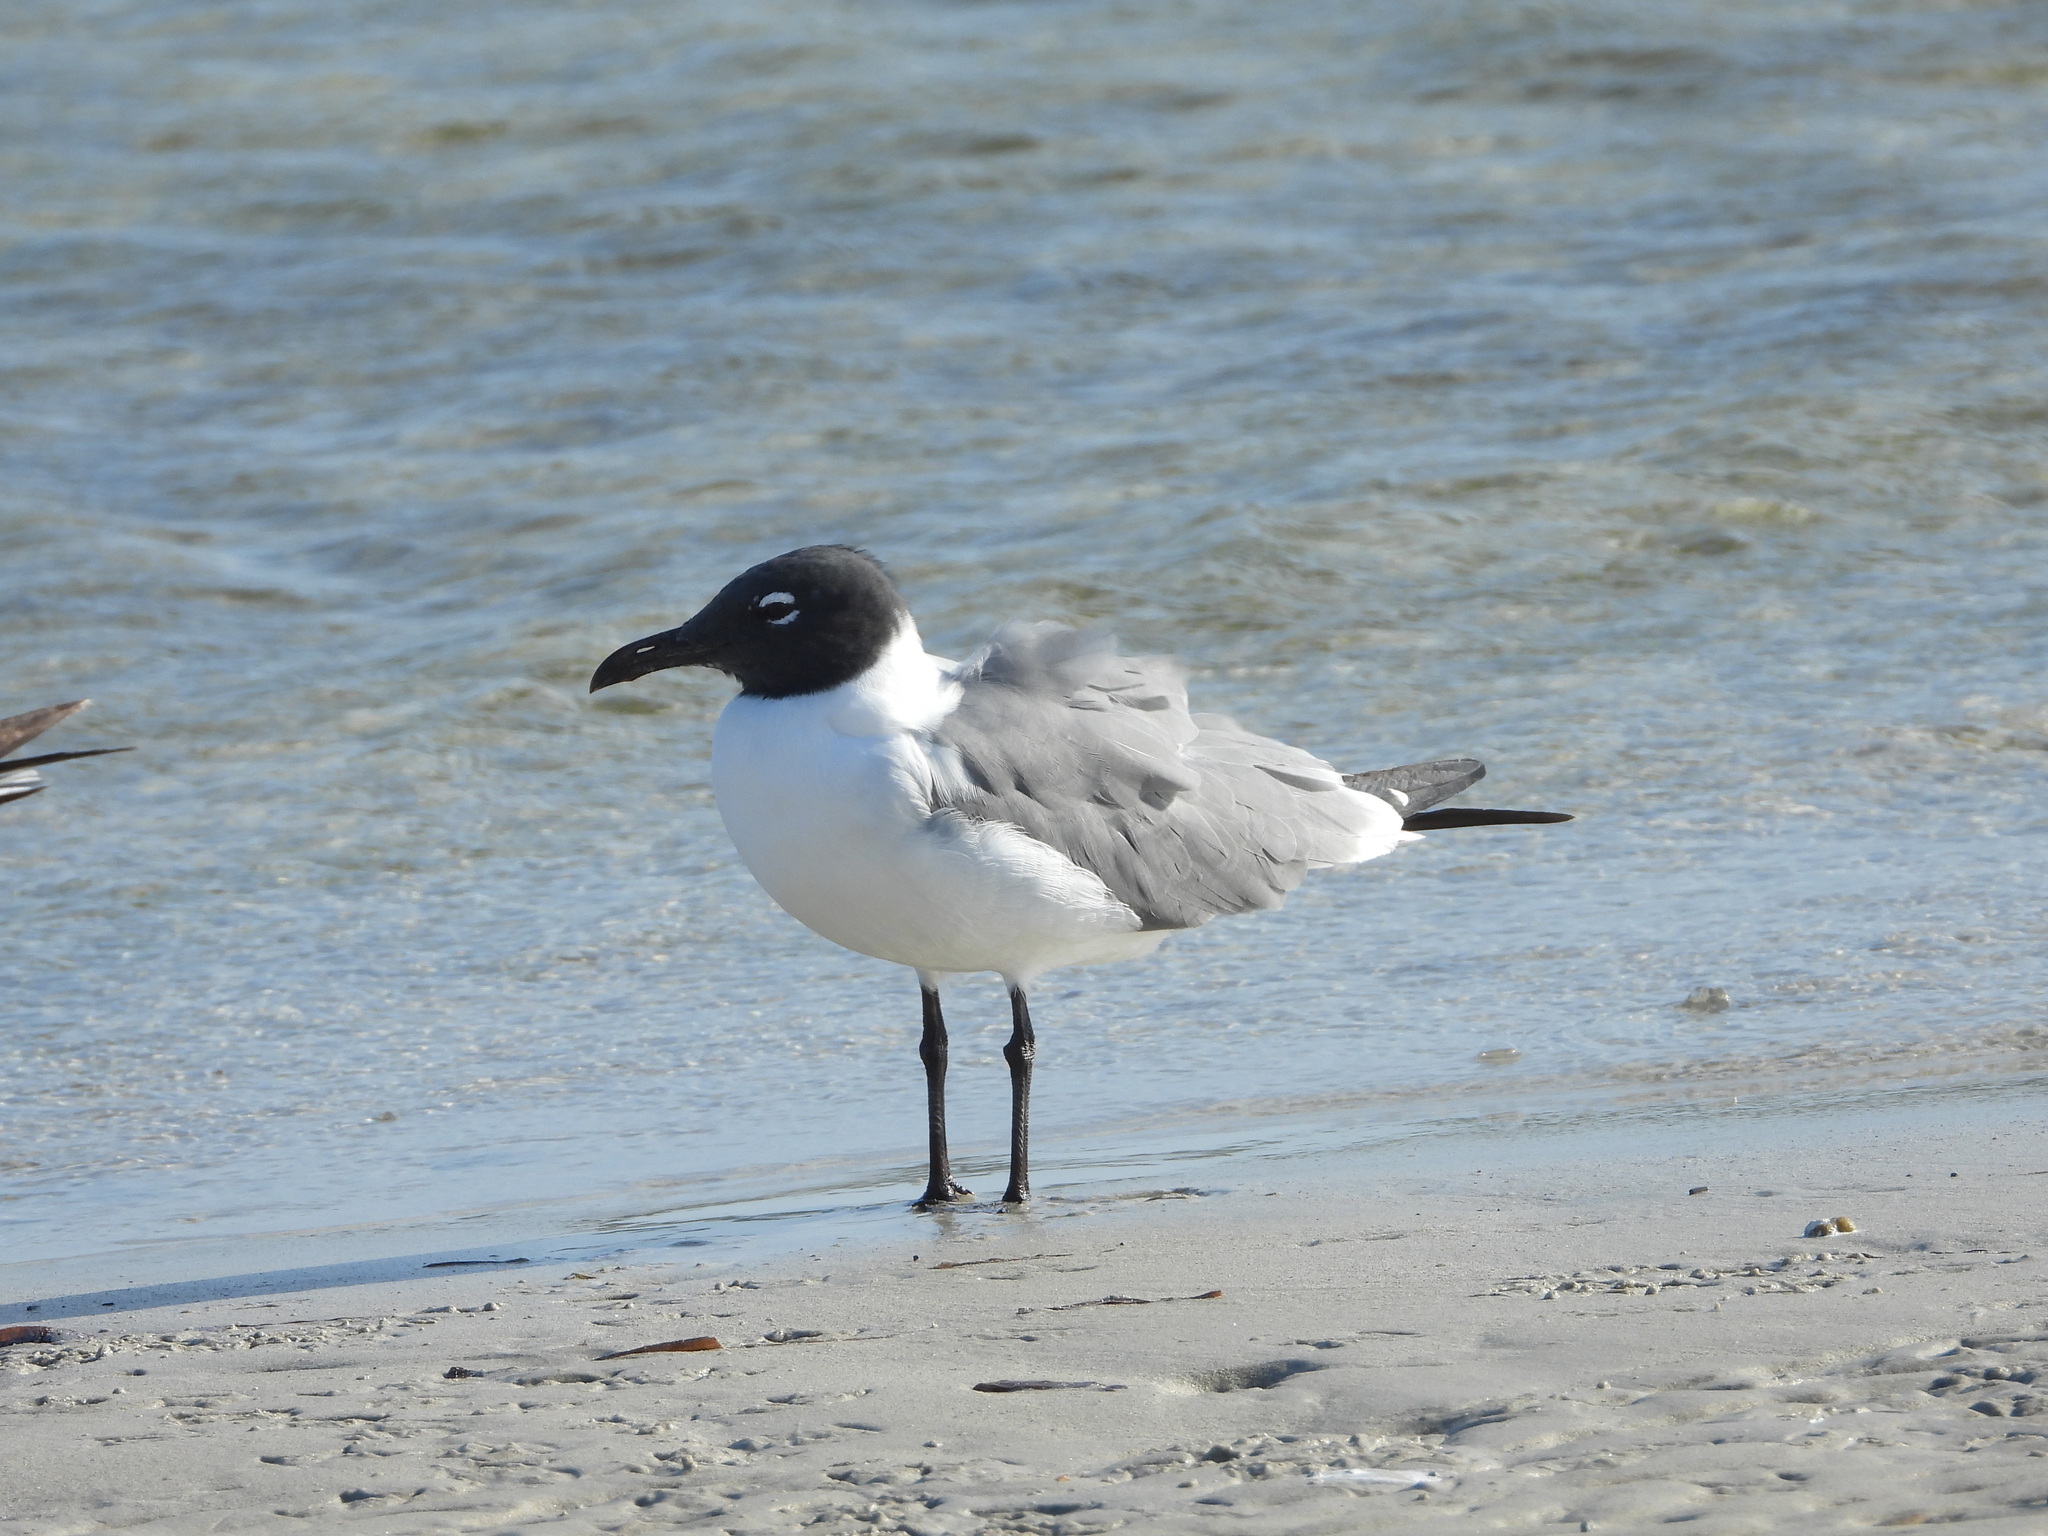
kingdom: Animalia
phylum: Chordata
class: Aves
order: Charadriiformes
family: Laridae
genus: Leucophaeus
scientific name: Leucophaeus atricilla
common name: Laughing gull
